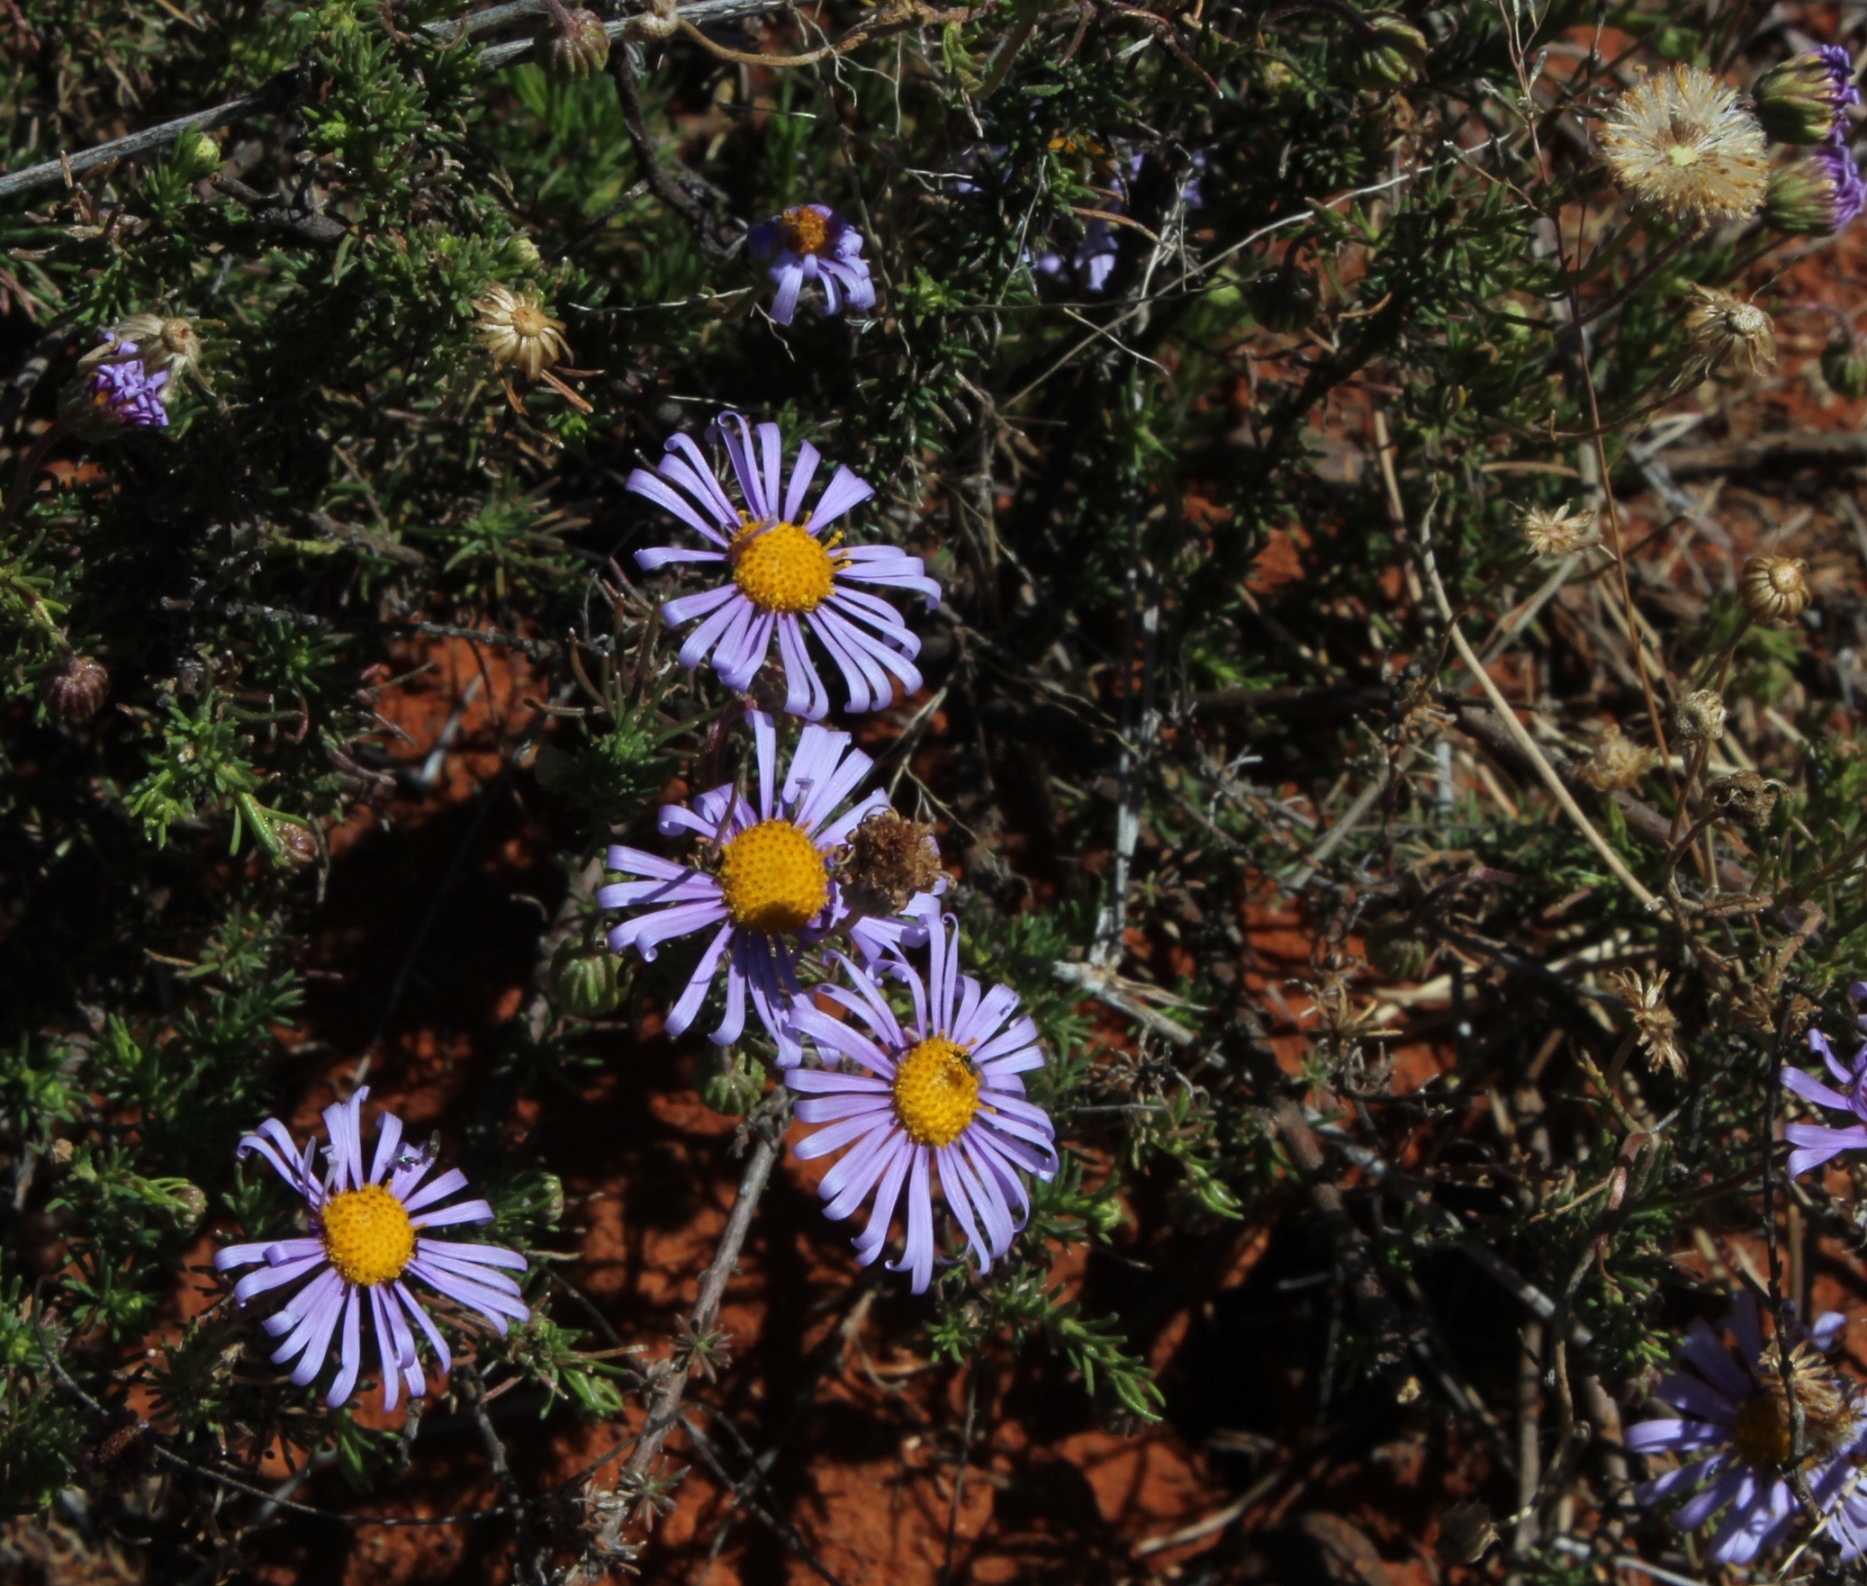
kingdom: Plantae
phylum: Tracheophyta
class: Magnoliopsida
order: Asterales
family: Asteraceae
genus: Felicia
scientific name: Felicia muricata
